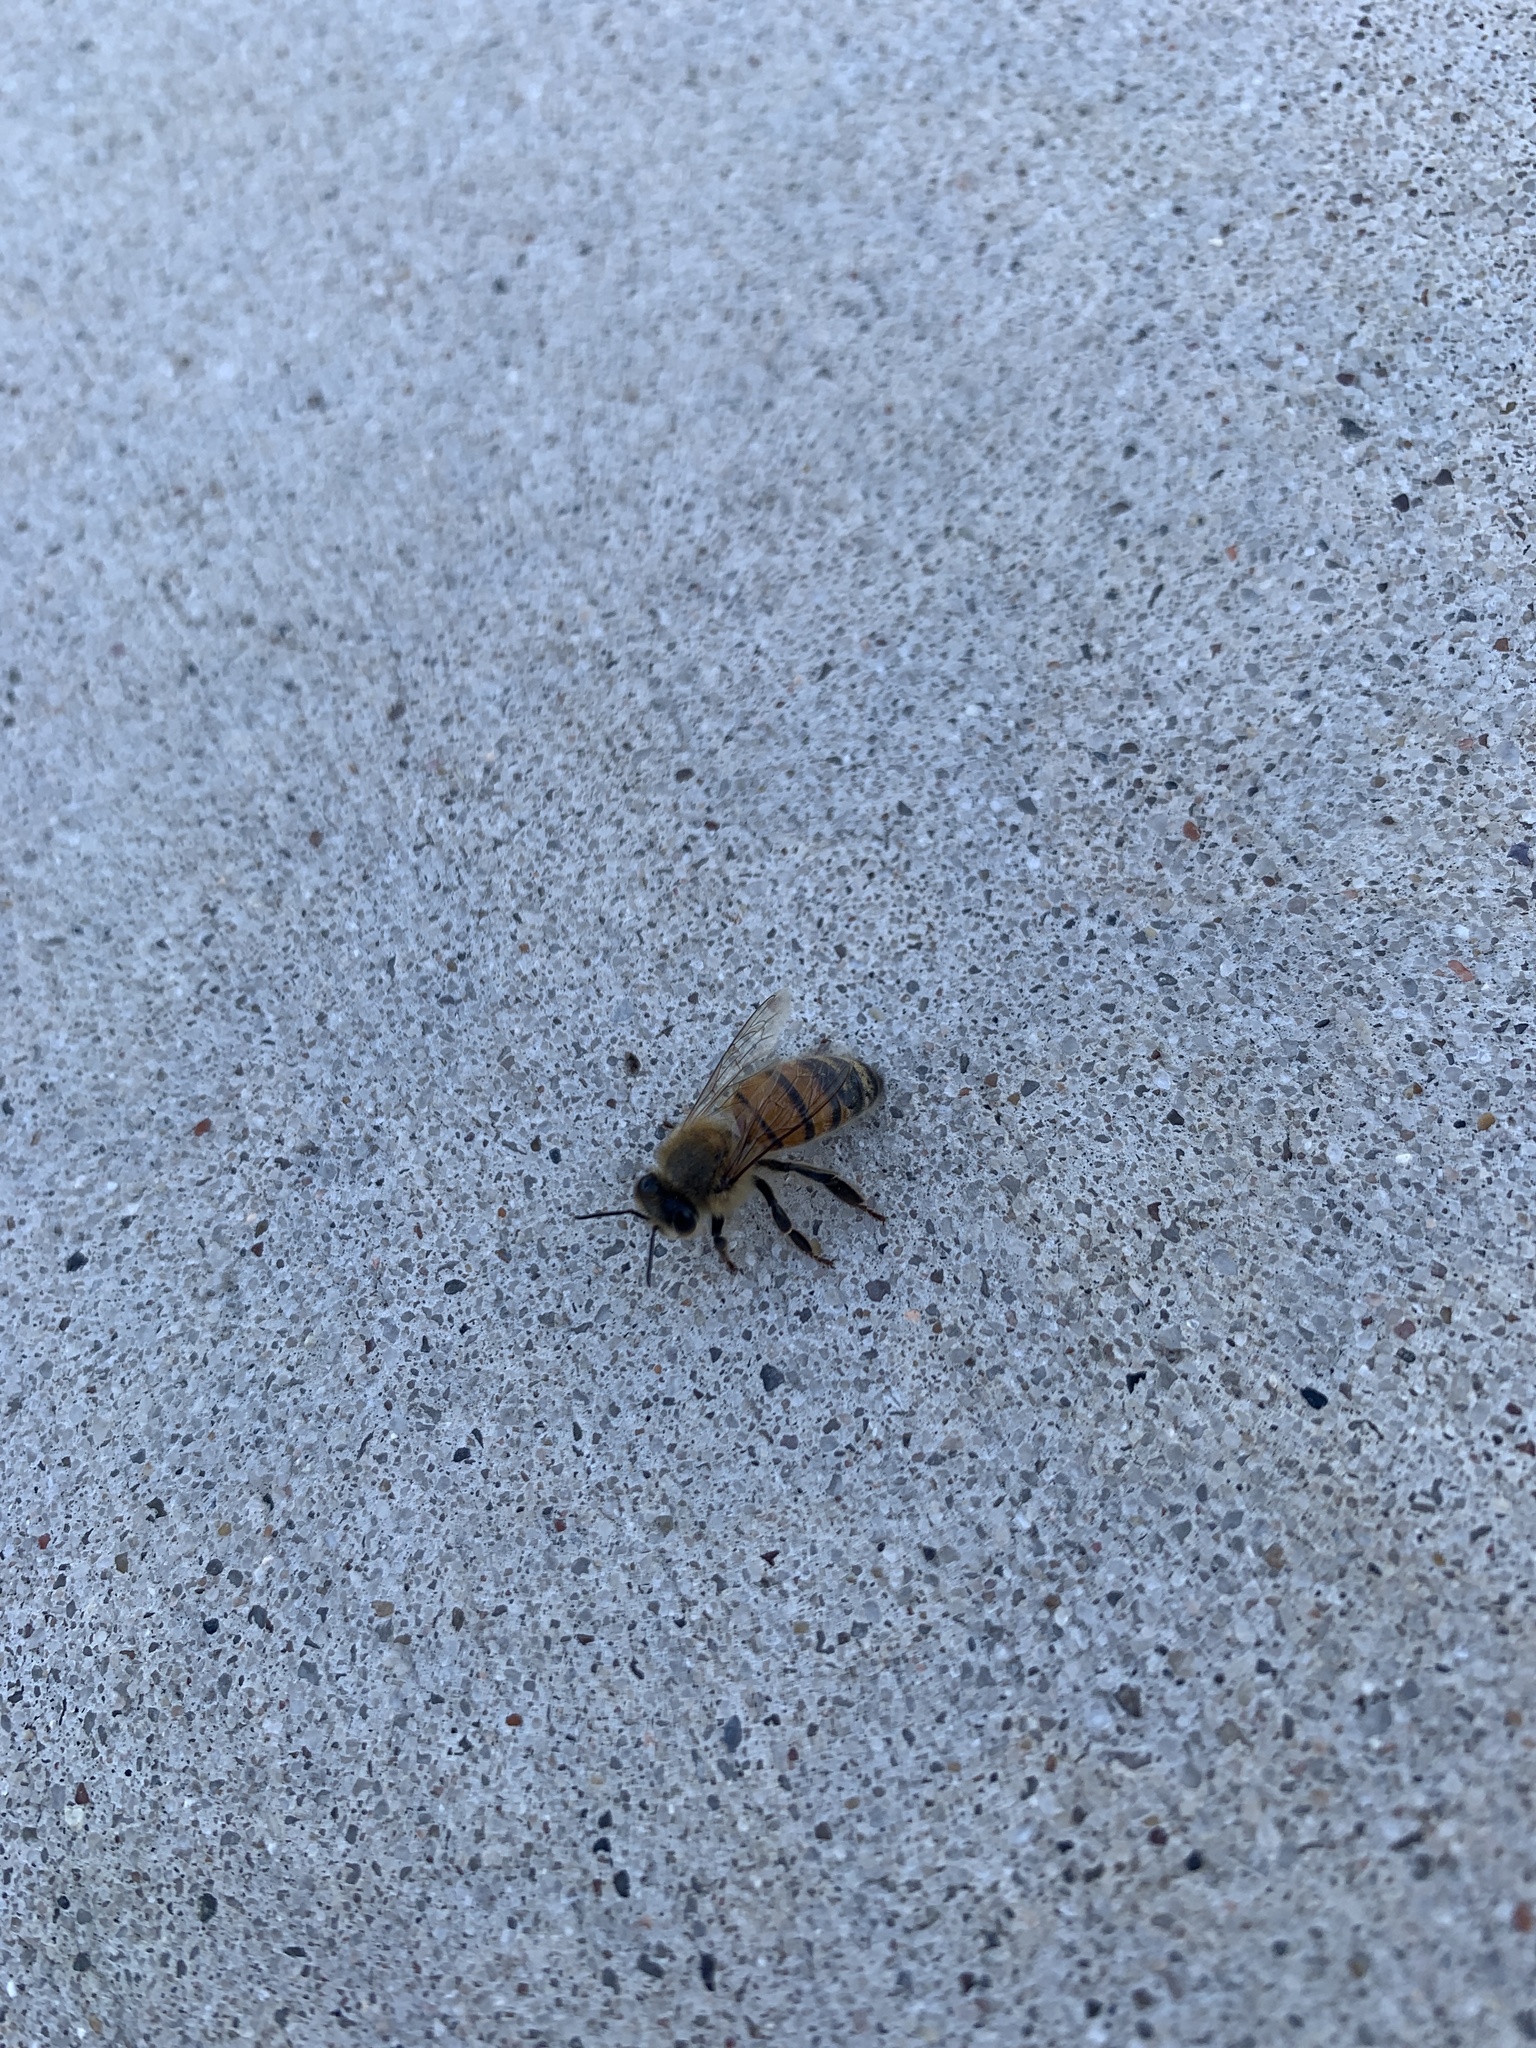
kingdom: Animalia
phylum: Arthropoda
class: Insecta
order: Hymenoptera
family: Apidae
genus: Apis
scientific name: Apis mellifera
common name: Honey bee
